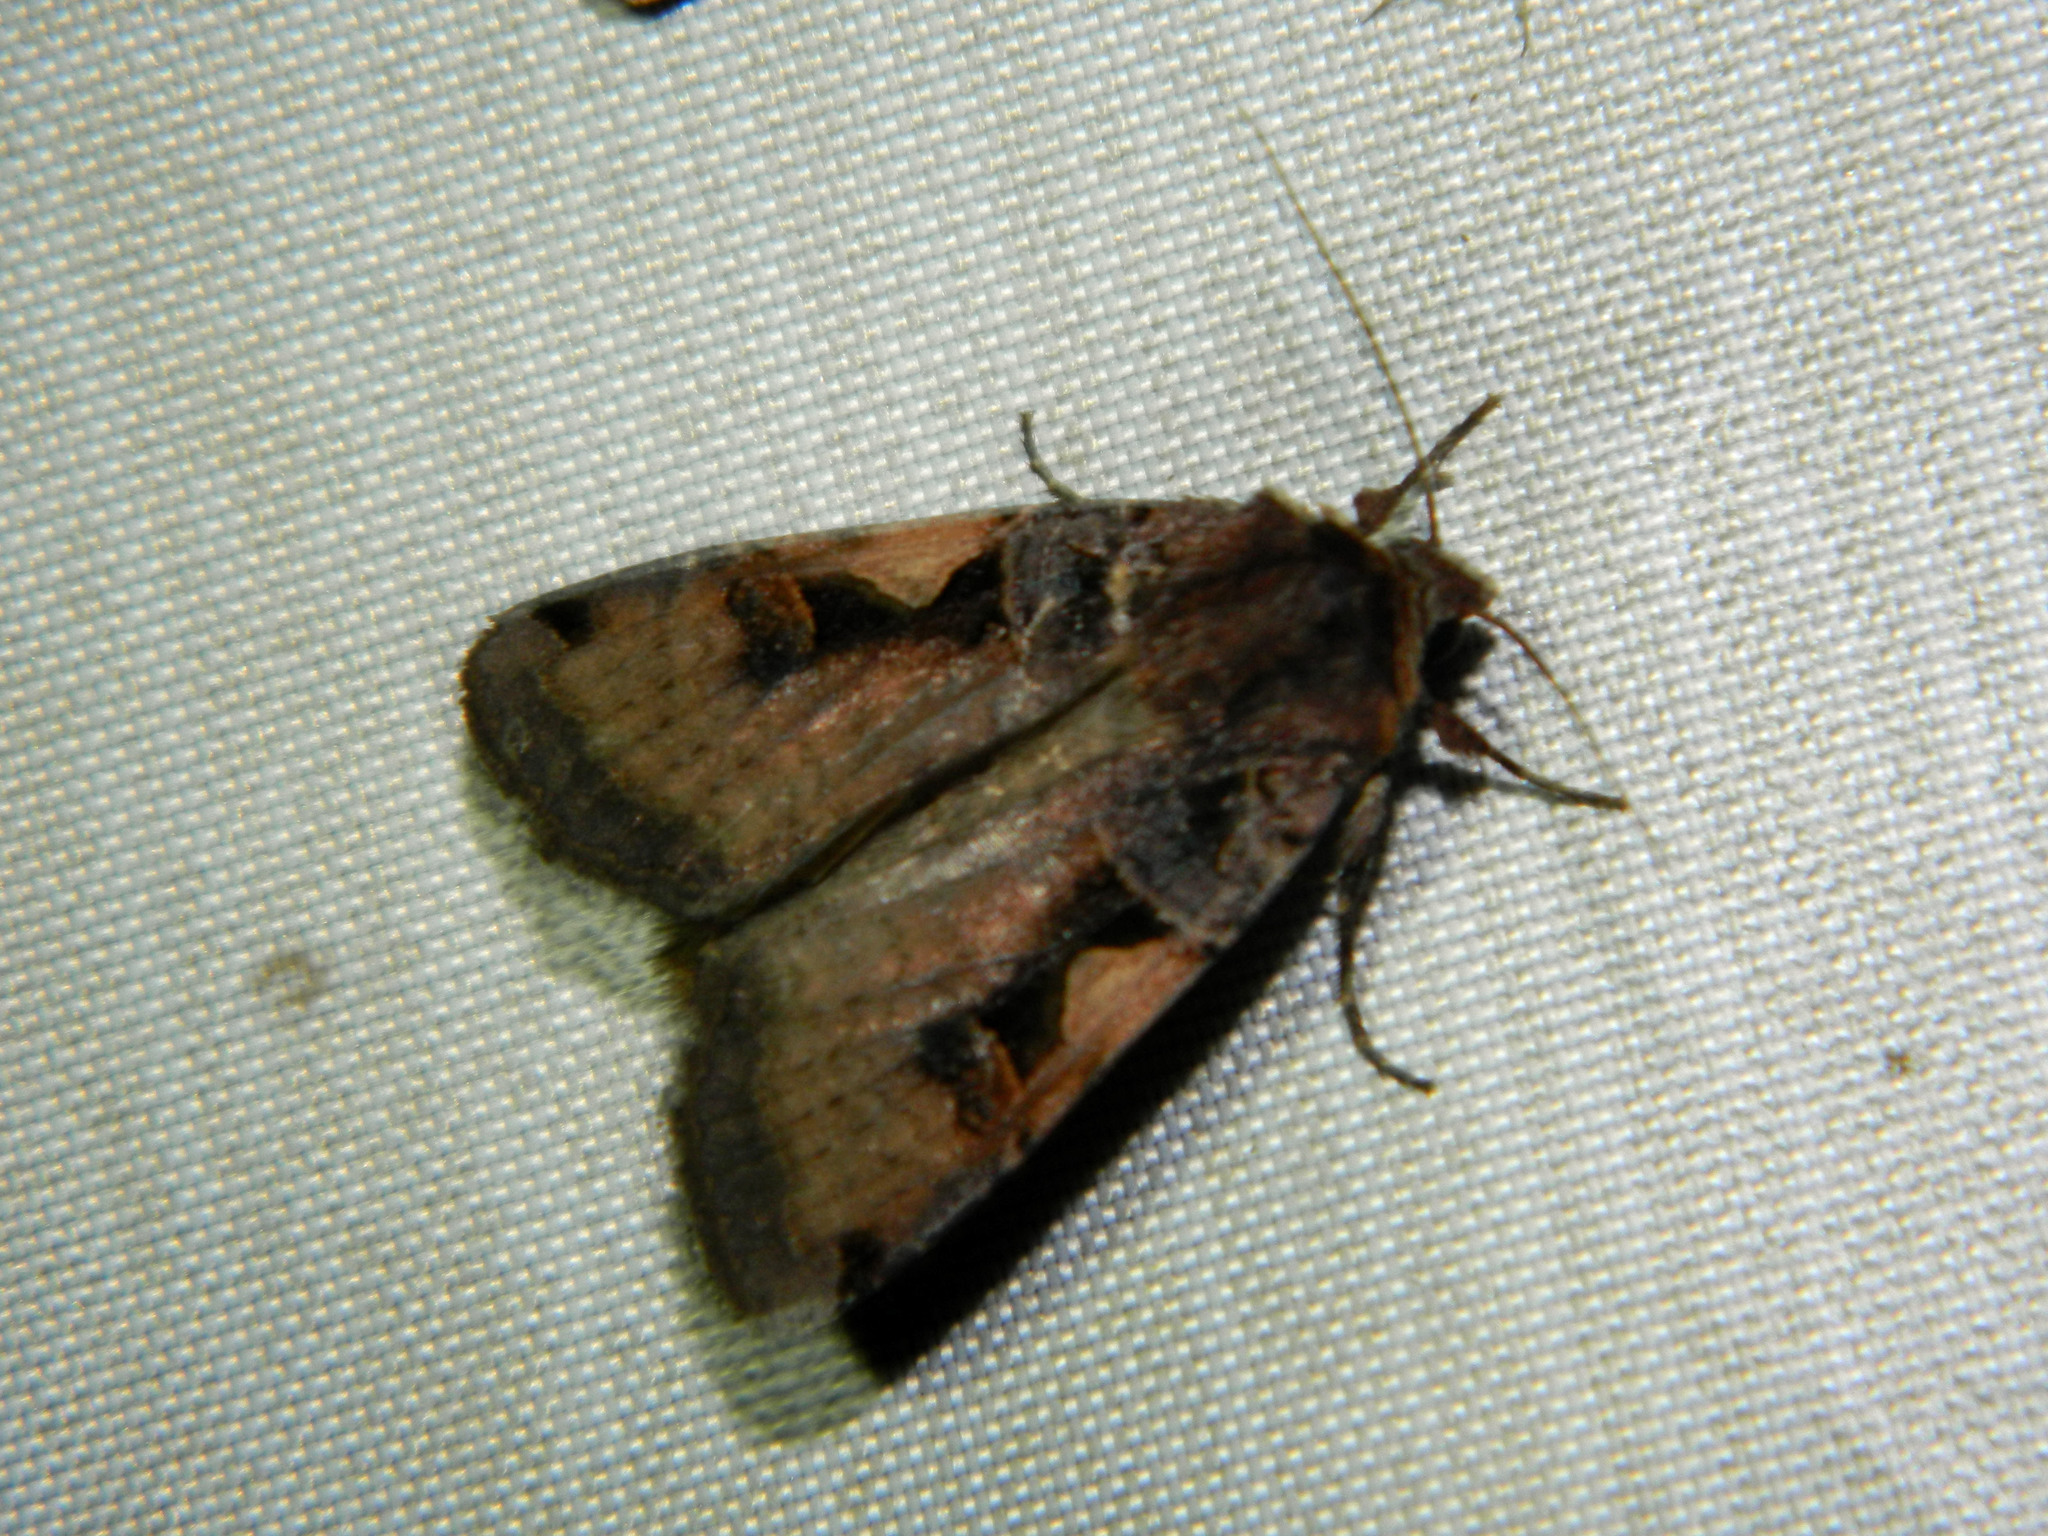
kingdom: Animalia
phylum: Arthropoda
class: Insecta
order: Lepidoptera
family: Noctuidae
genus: Xestia
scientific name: Xestia
